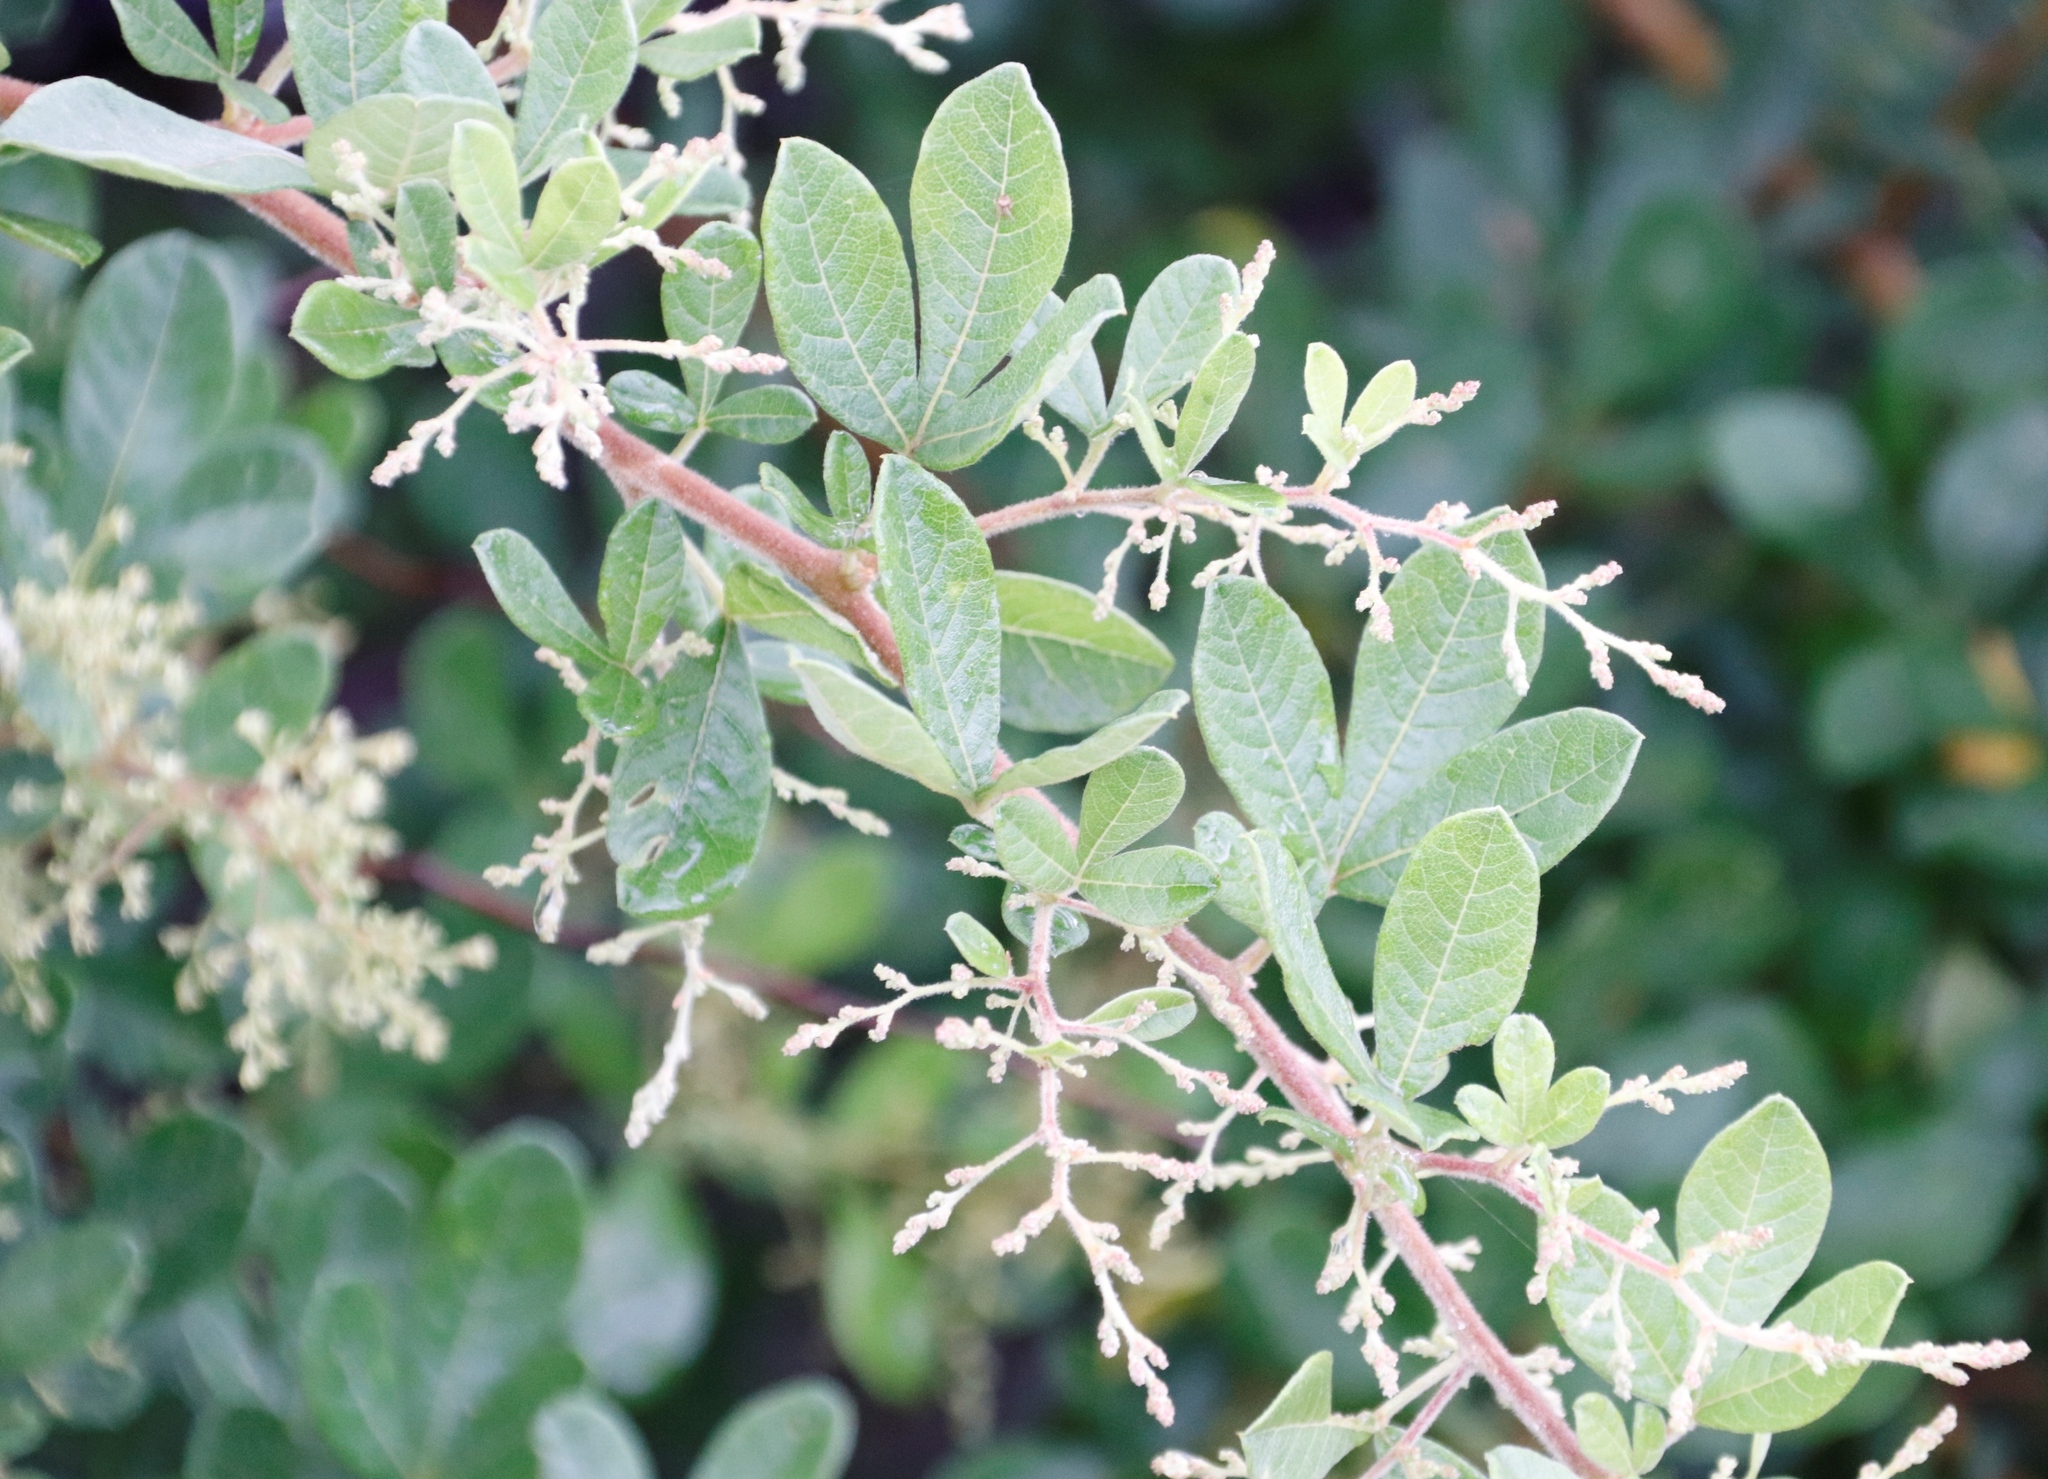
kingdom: Plantae
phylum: Tracheophyta
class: Magnoliopsida
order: Sapindales
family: Anacardiaceae
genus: Searsia
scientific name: Searsia pyroides
